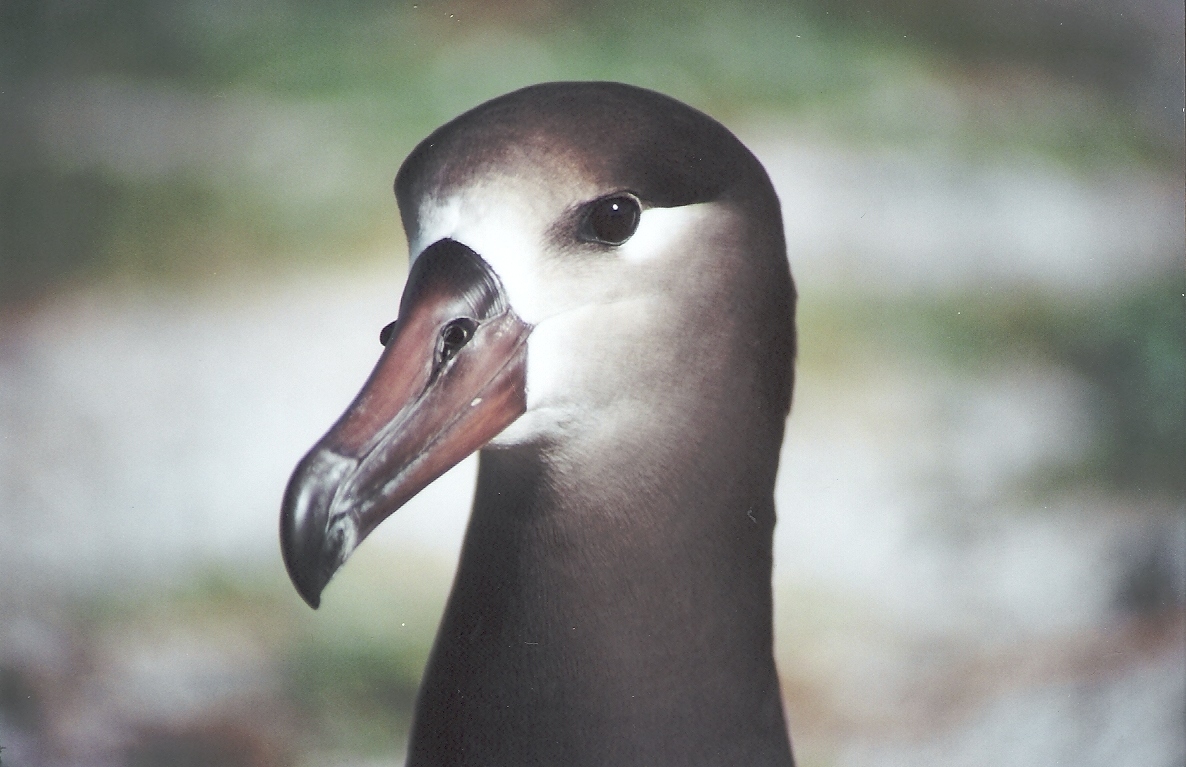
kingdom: Animalia
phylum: Chordata
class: Aves
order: Procellariiformes
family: Diomedeidae
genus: Phoebastria
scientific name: Phoebastria nigripes
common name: Black-footed albatross
